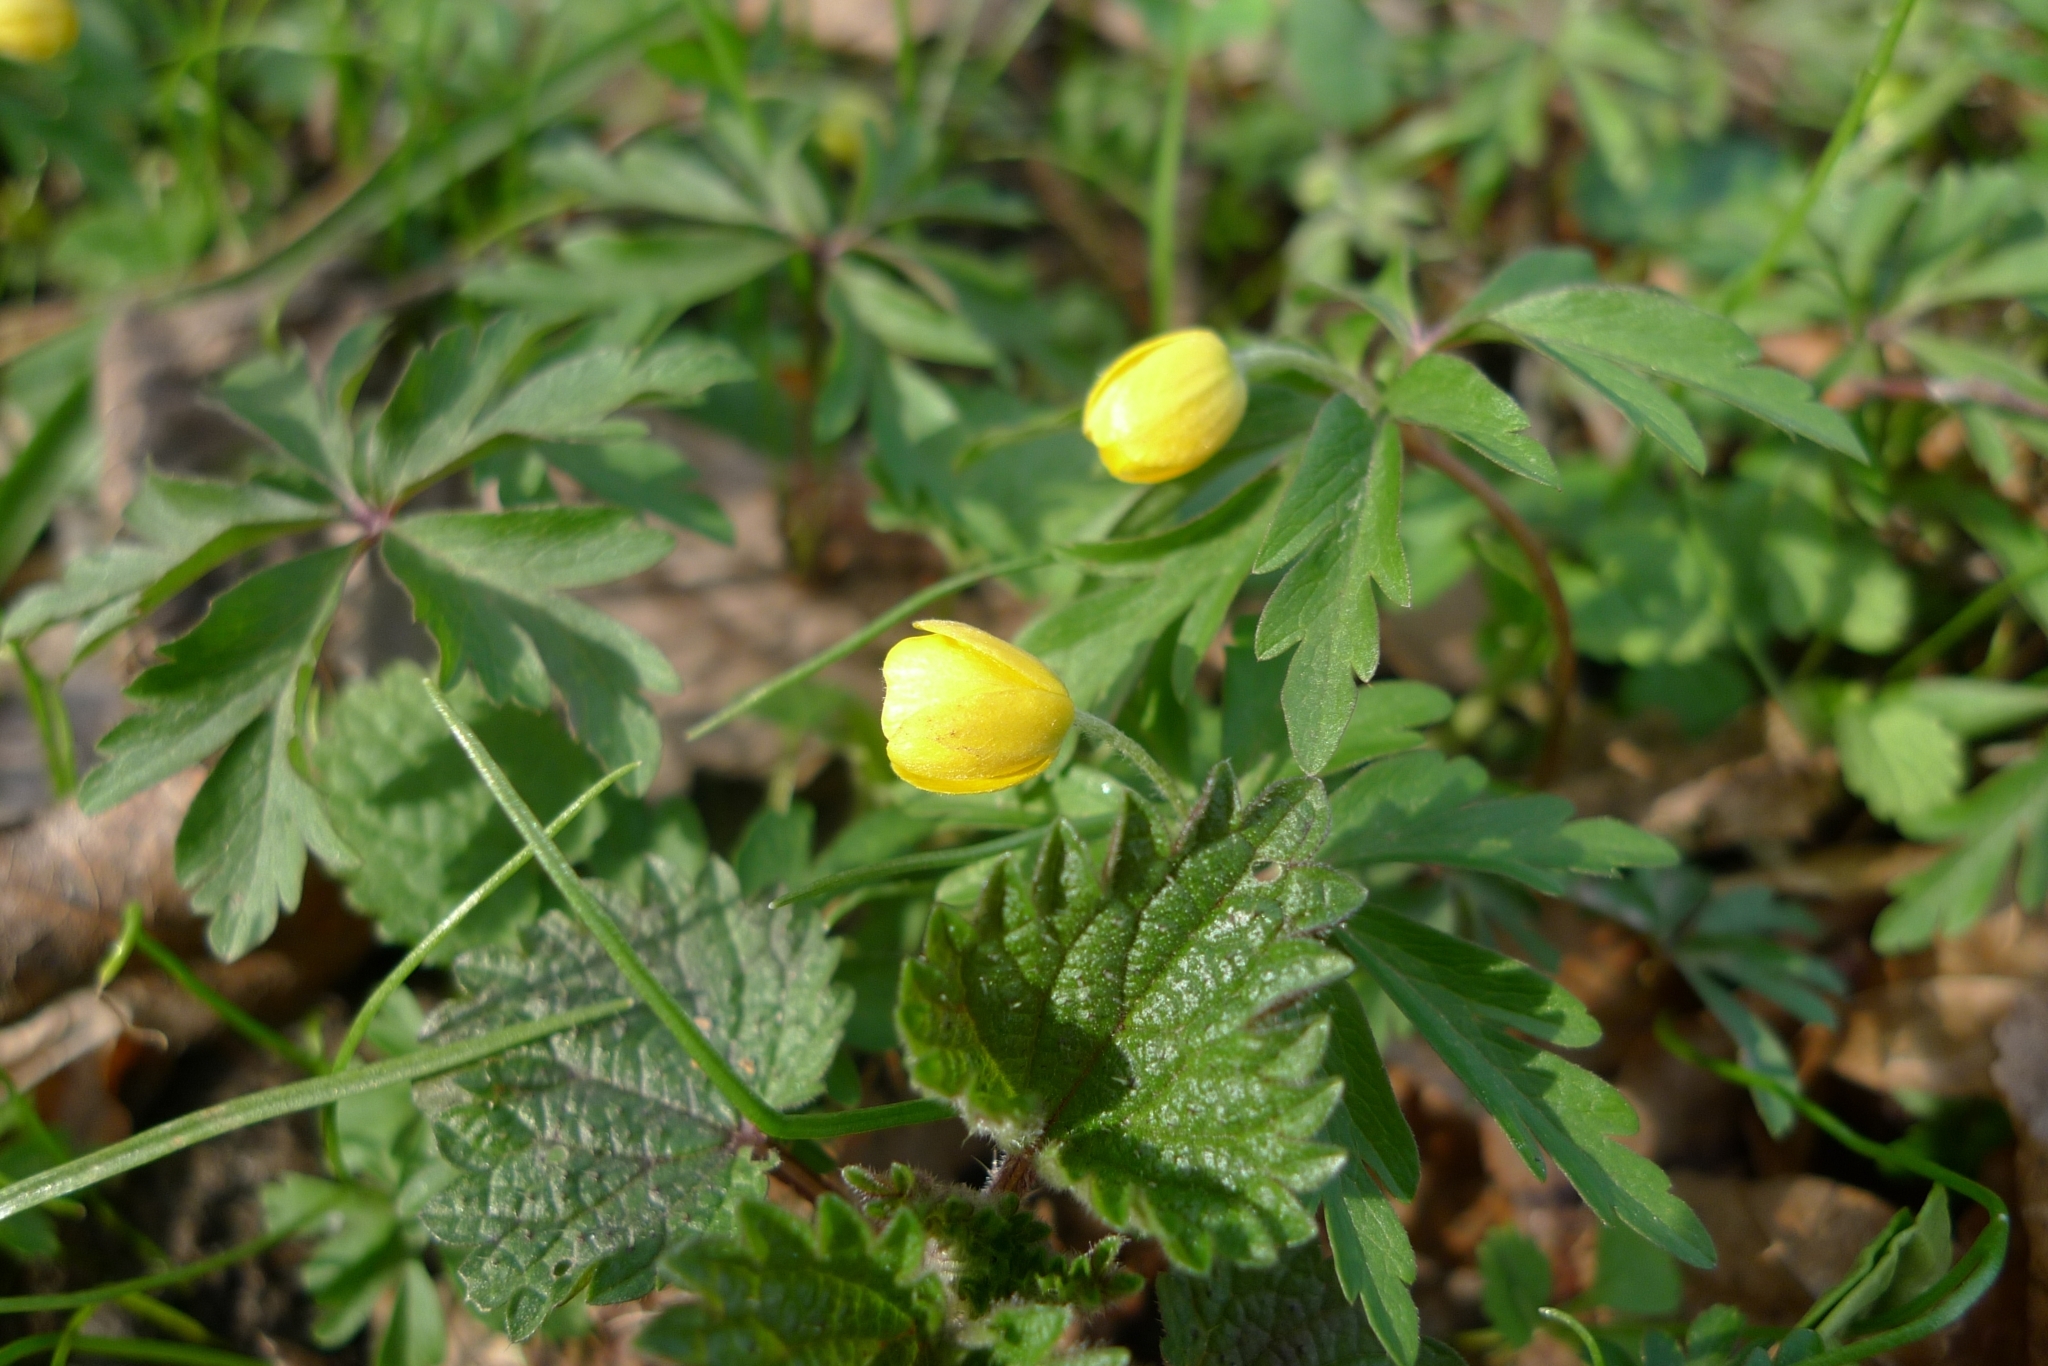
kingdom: Plantae
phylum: Tracheophyta
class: Magnoliopsida
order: Ranunculales
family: Ranunculaceae
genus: Anemone
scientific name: Anemone ranunculoides
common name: Yellow anemone
